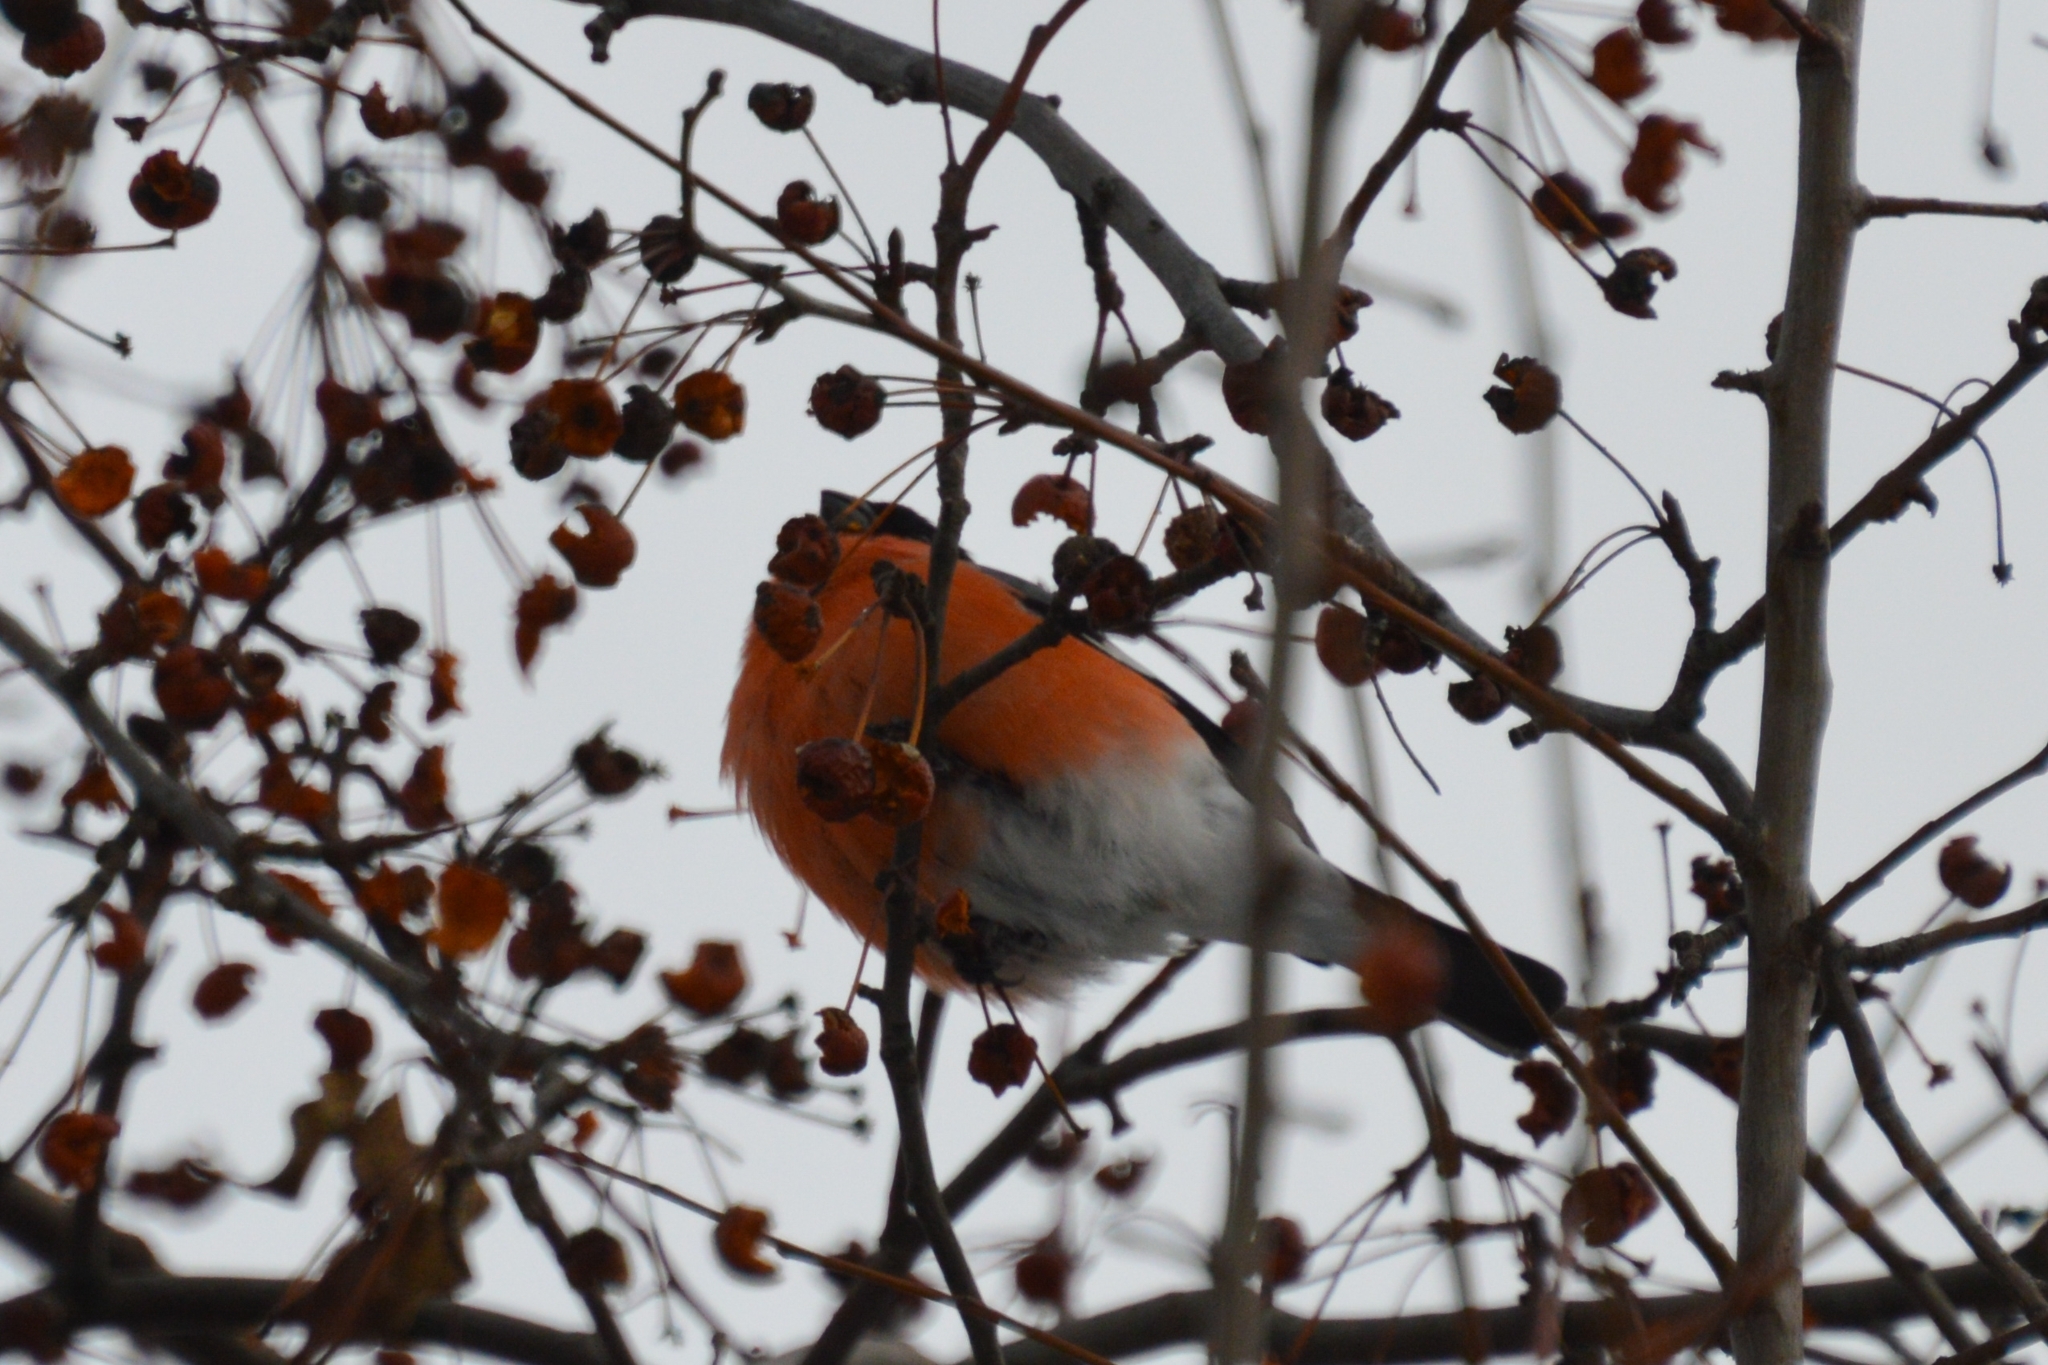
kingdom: Animalia
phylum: Chordata
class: Aves
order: Passeriformes
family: Fringillidae
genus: Pyrrhula
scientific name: Pyrrhula pyrrhula
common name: Eurasian bullfinch
